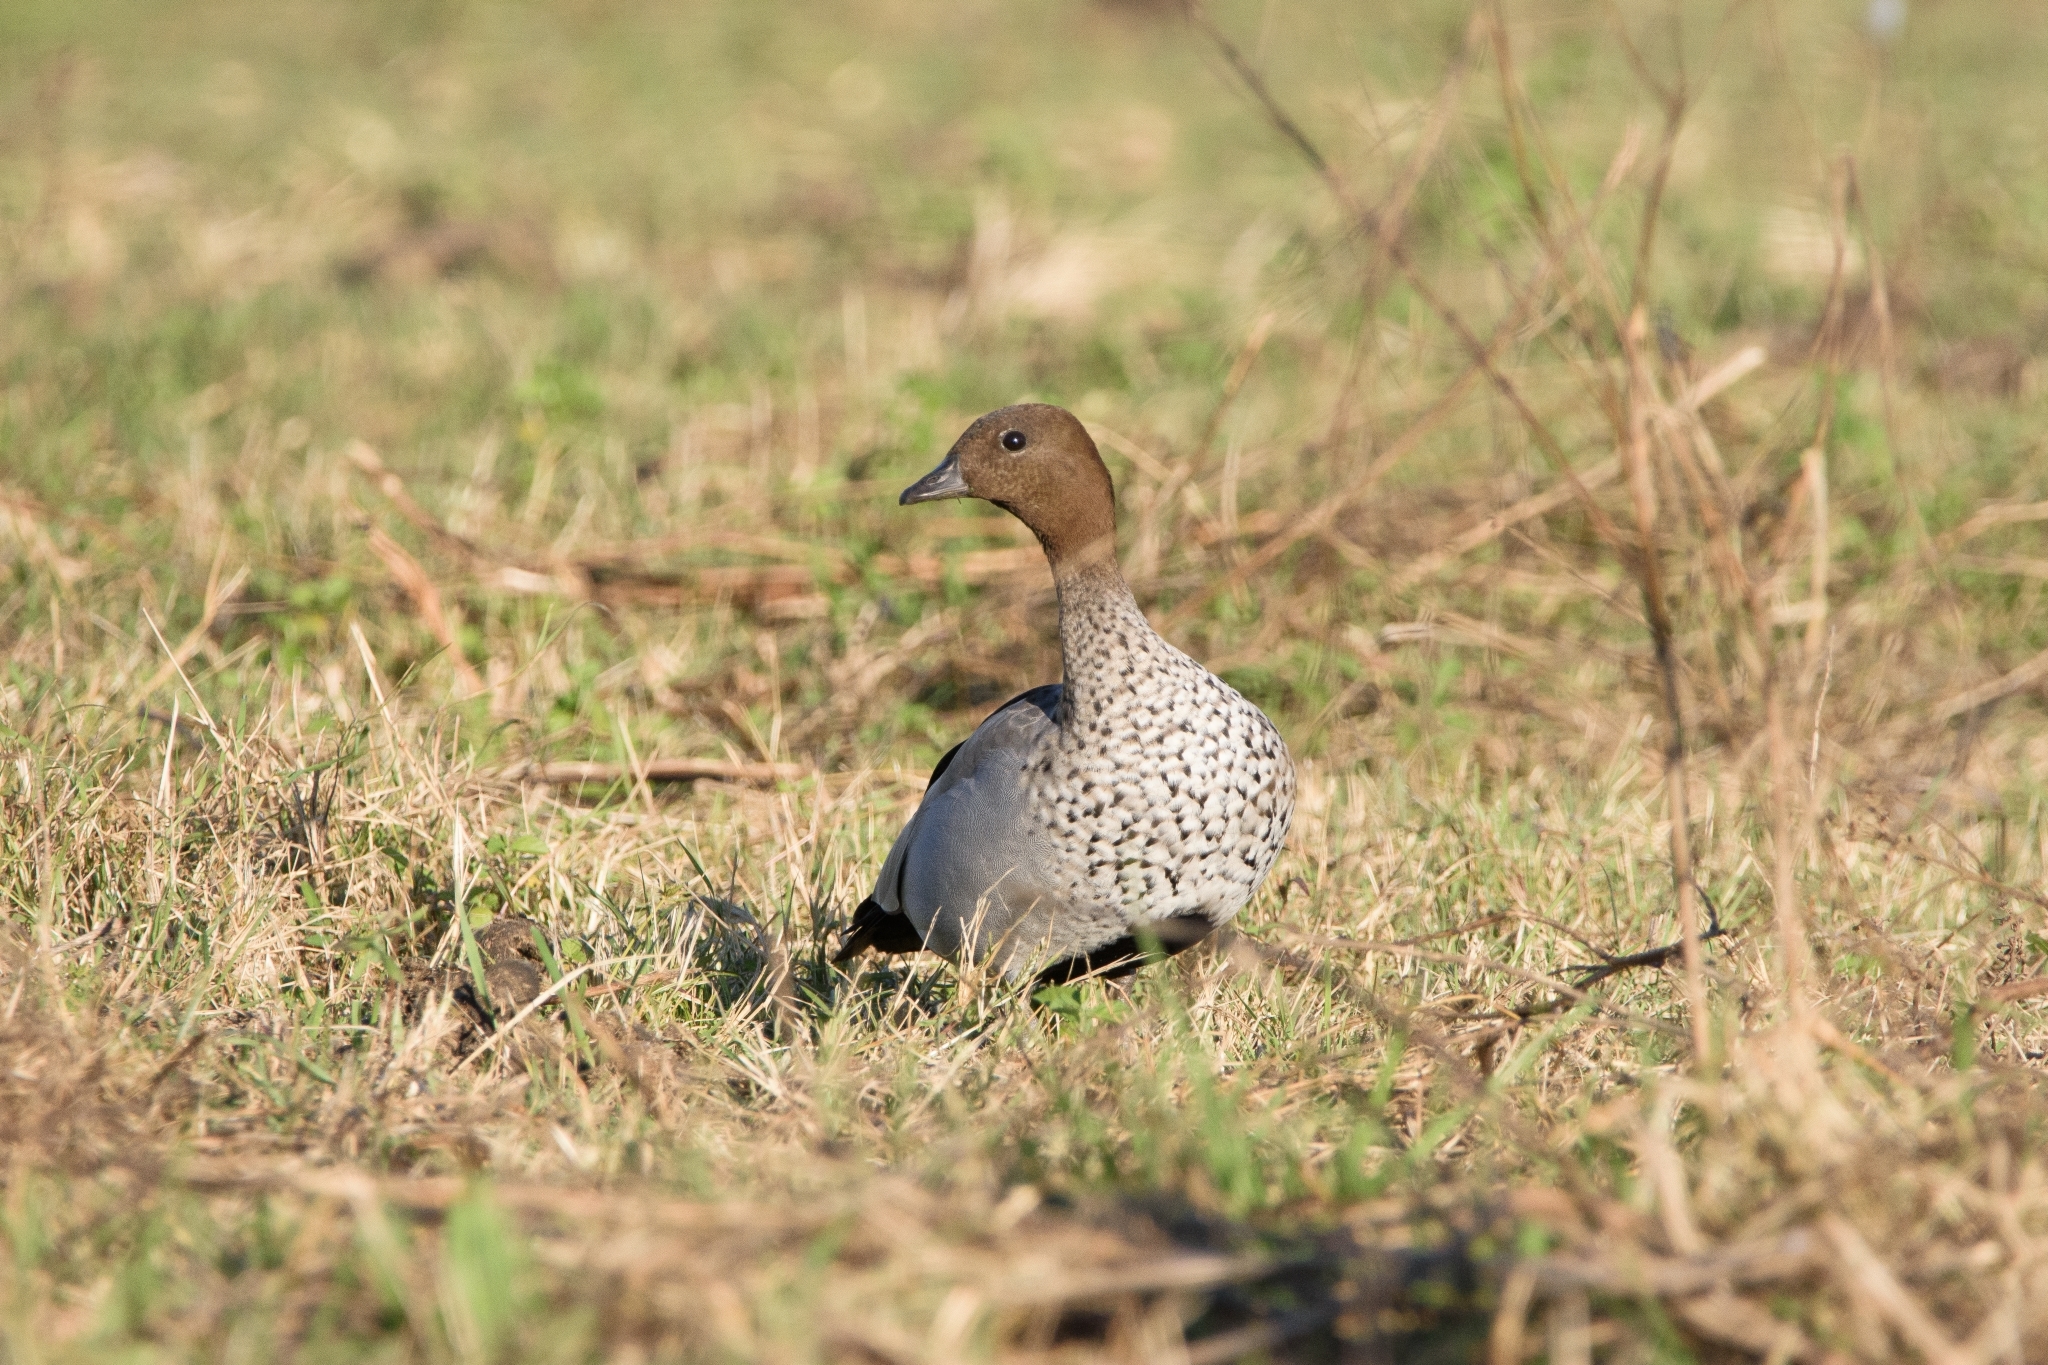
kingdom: Animalia
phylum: Chordata
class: Aves
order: Anseriformes
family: Anatidae
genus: Chenonetta
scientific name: Chenonetta jubata
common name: Maned duck
